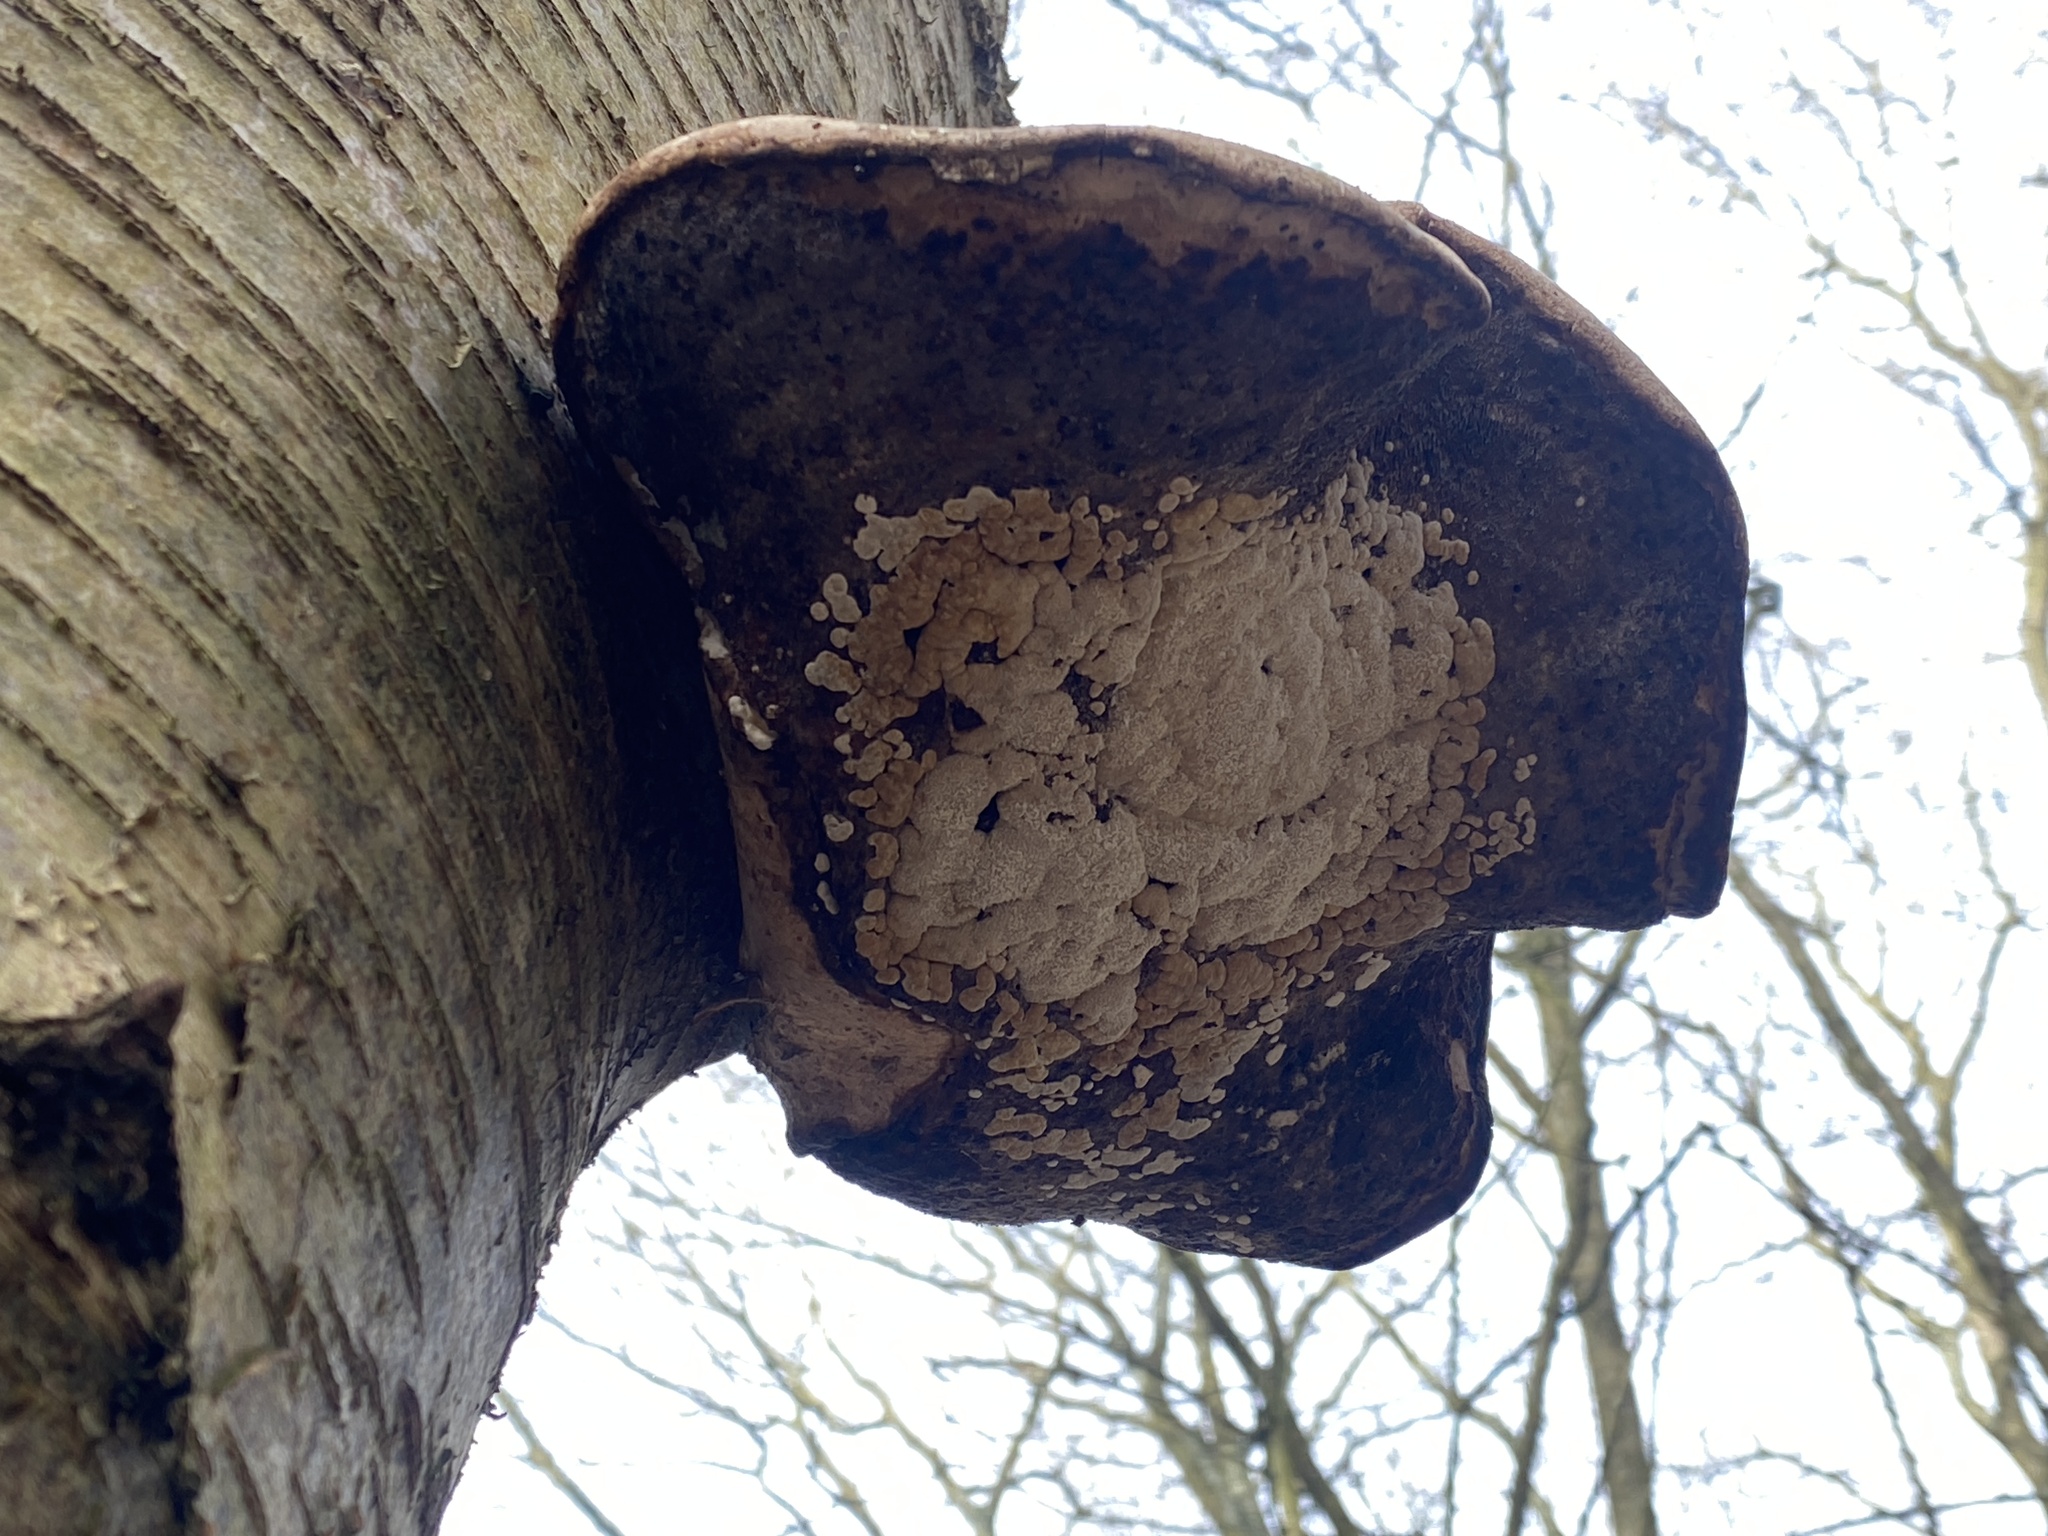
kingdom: Fungi
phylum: Basidiomycota
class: Agaricomycetes
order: Polyporales
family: Fomitopsidaceae
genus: Fomitopsis
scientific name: Fomitopsis betulina
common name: Birch polypore
